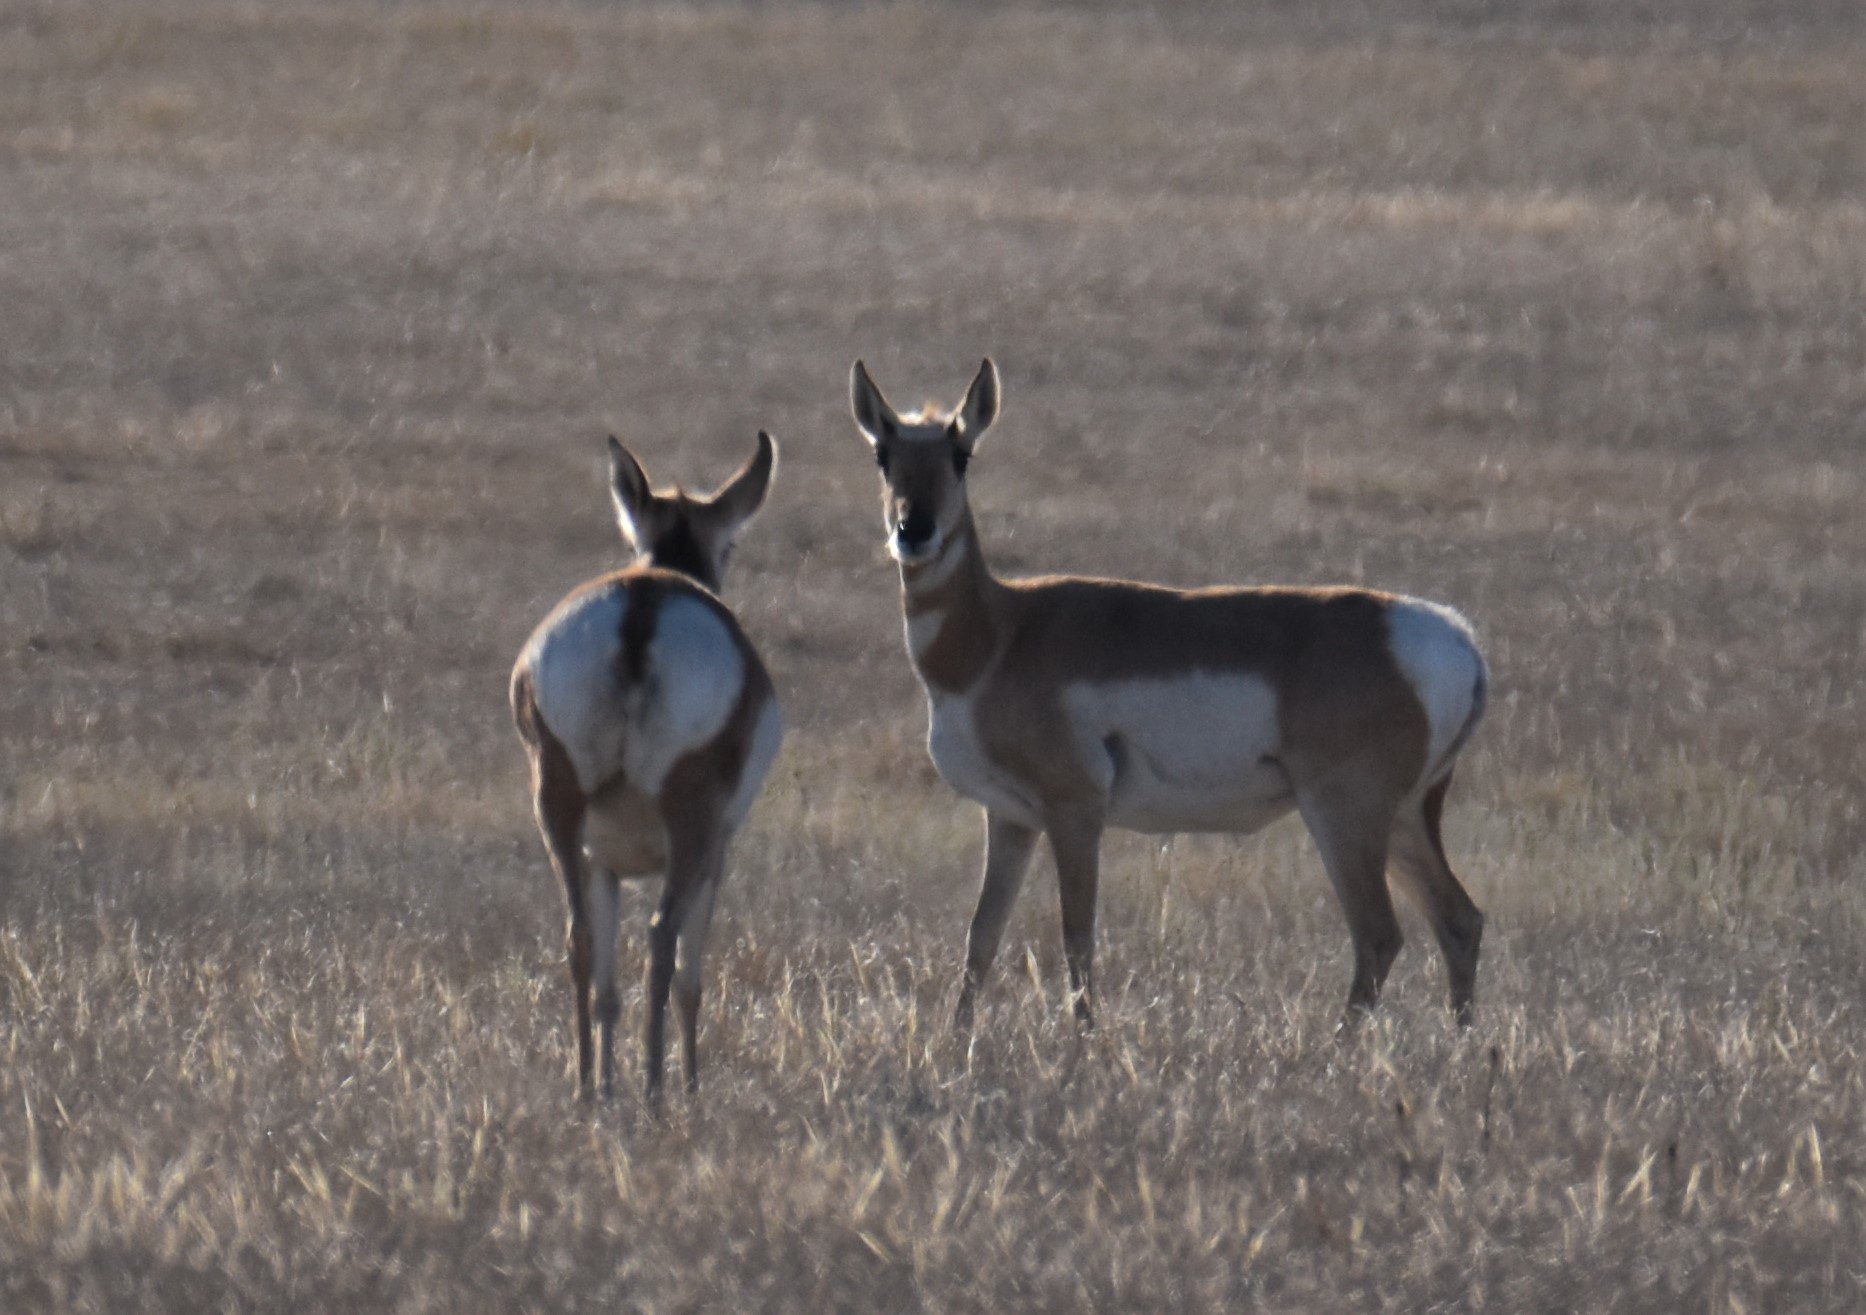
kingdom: Animalia
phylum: Chordata
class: Mammalia
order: Artiodactyla
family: Antilocapridae
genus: Antilocapra
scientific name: Antilocapra americana
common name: Pronghorn
